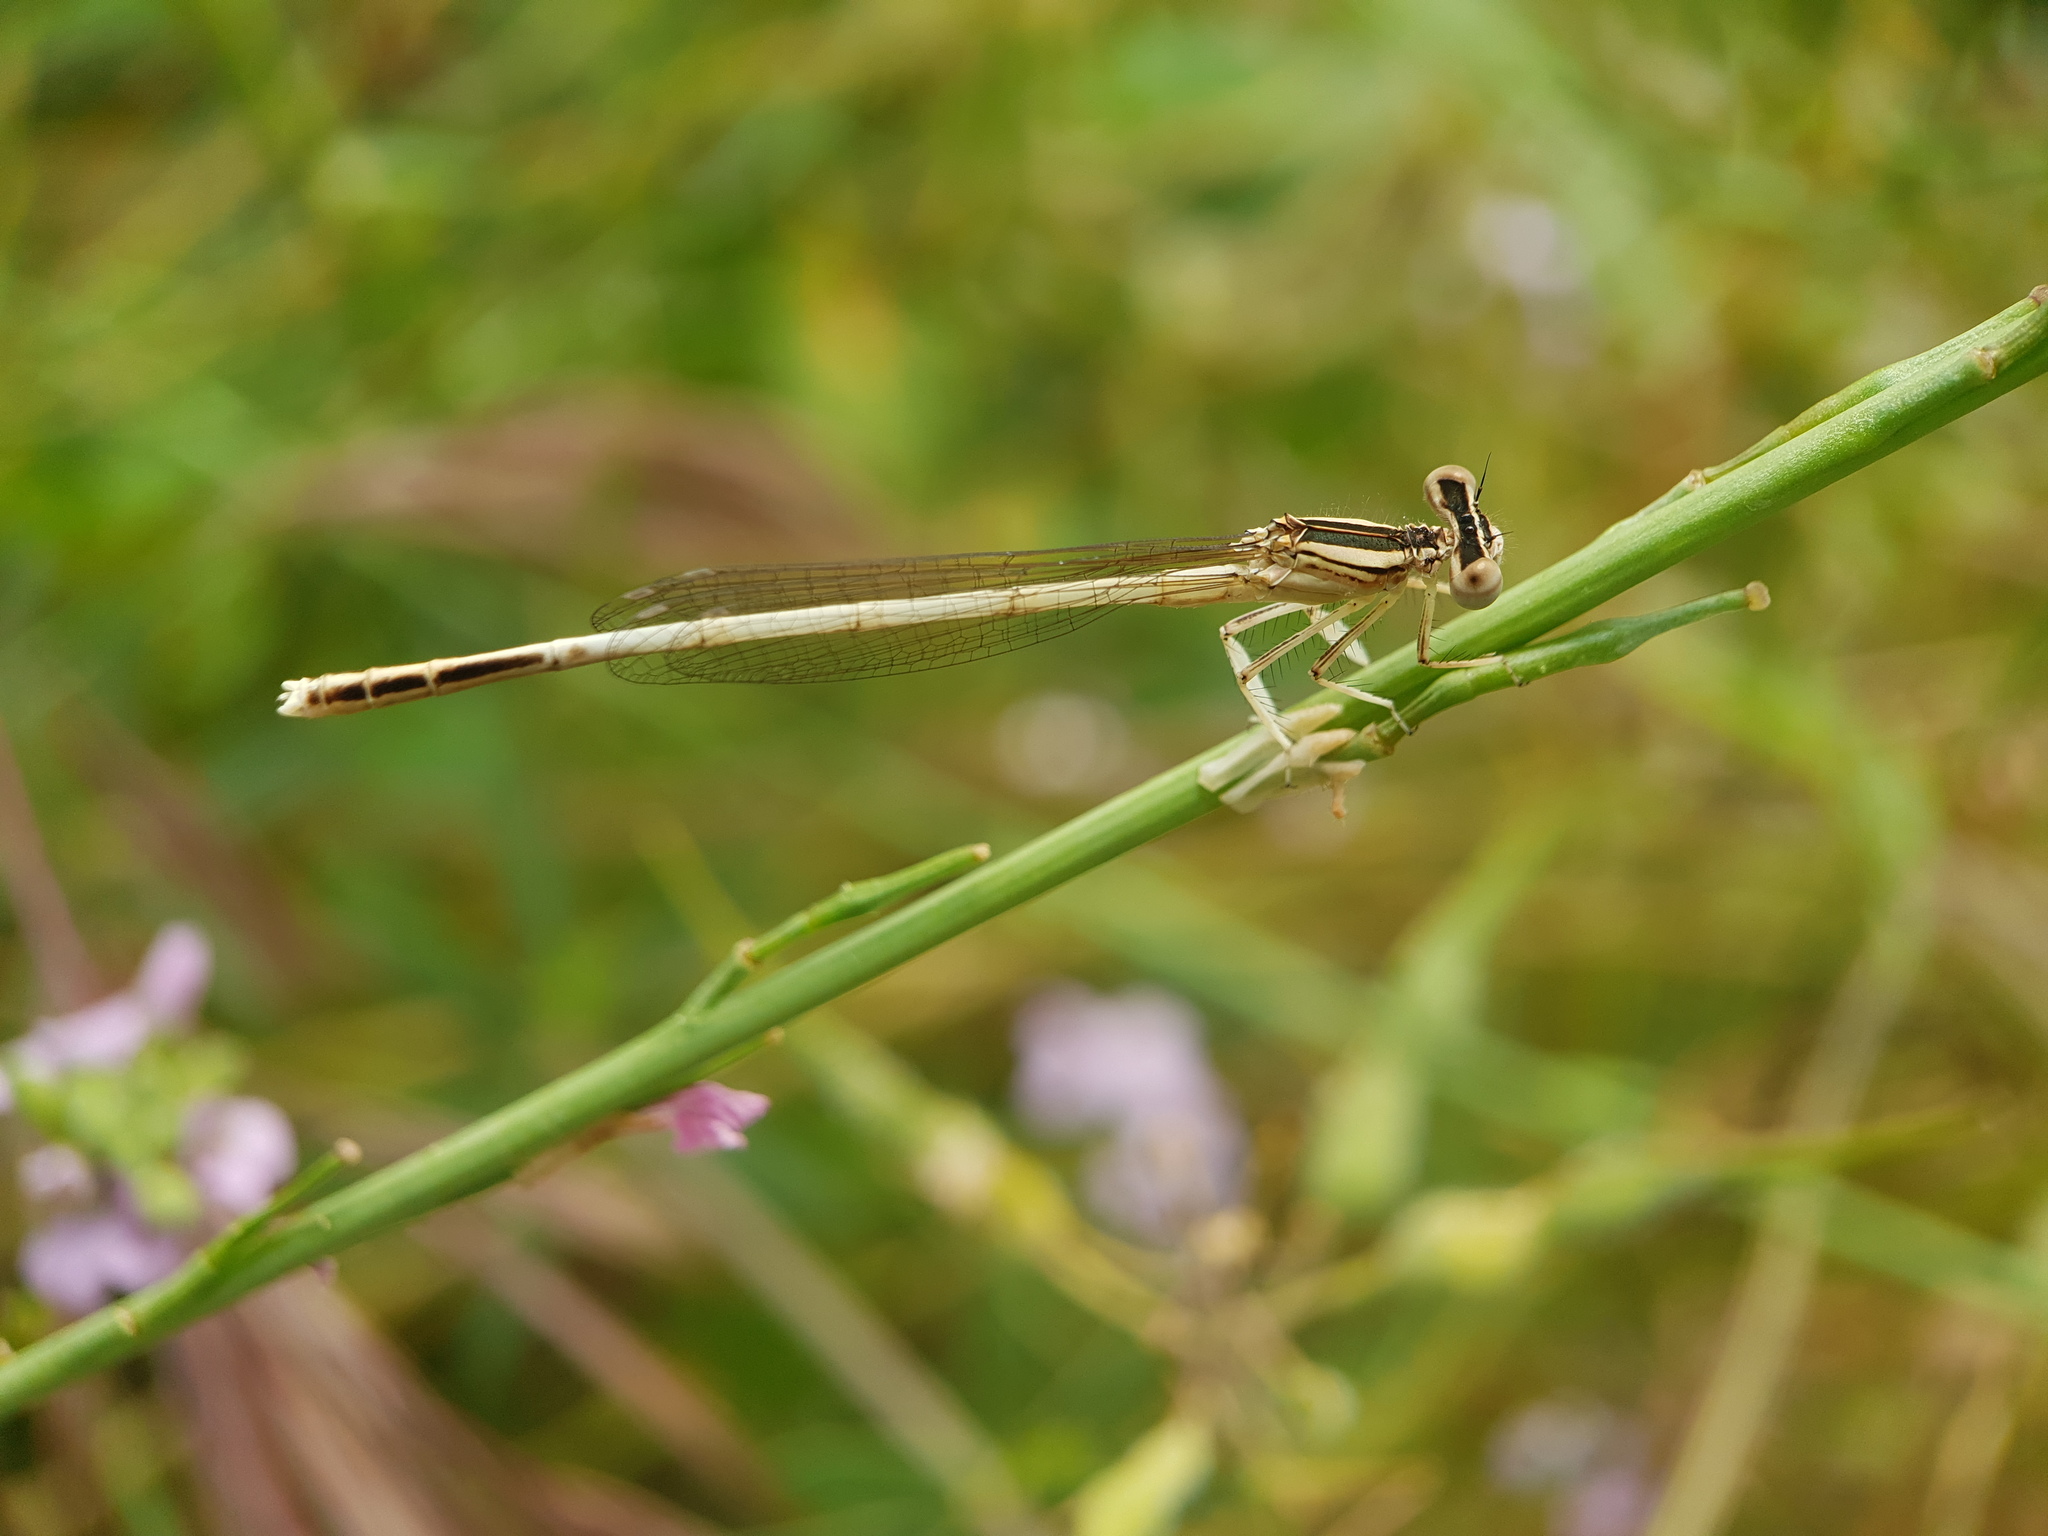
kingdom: Animalia
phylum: Arthropoda
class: Insecta
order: Odonata
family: Platycnemididae
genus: Platycnemis
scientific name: Platycnemis dealbata
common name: Ivory featherleg
